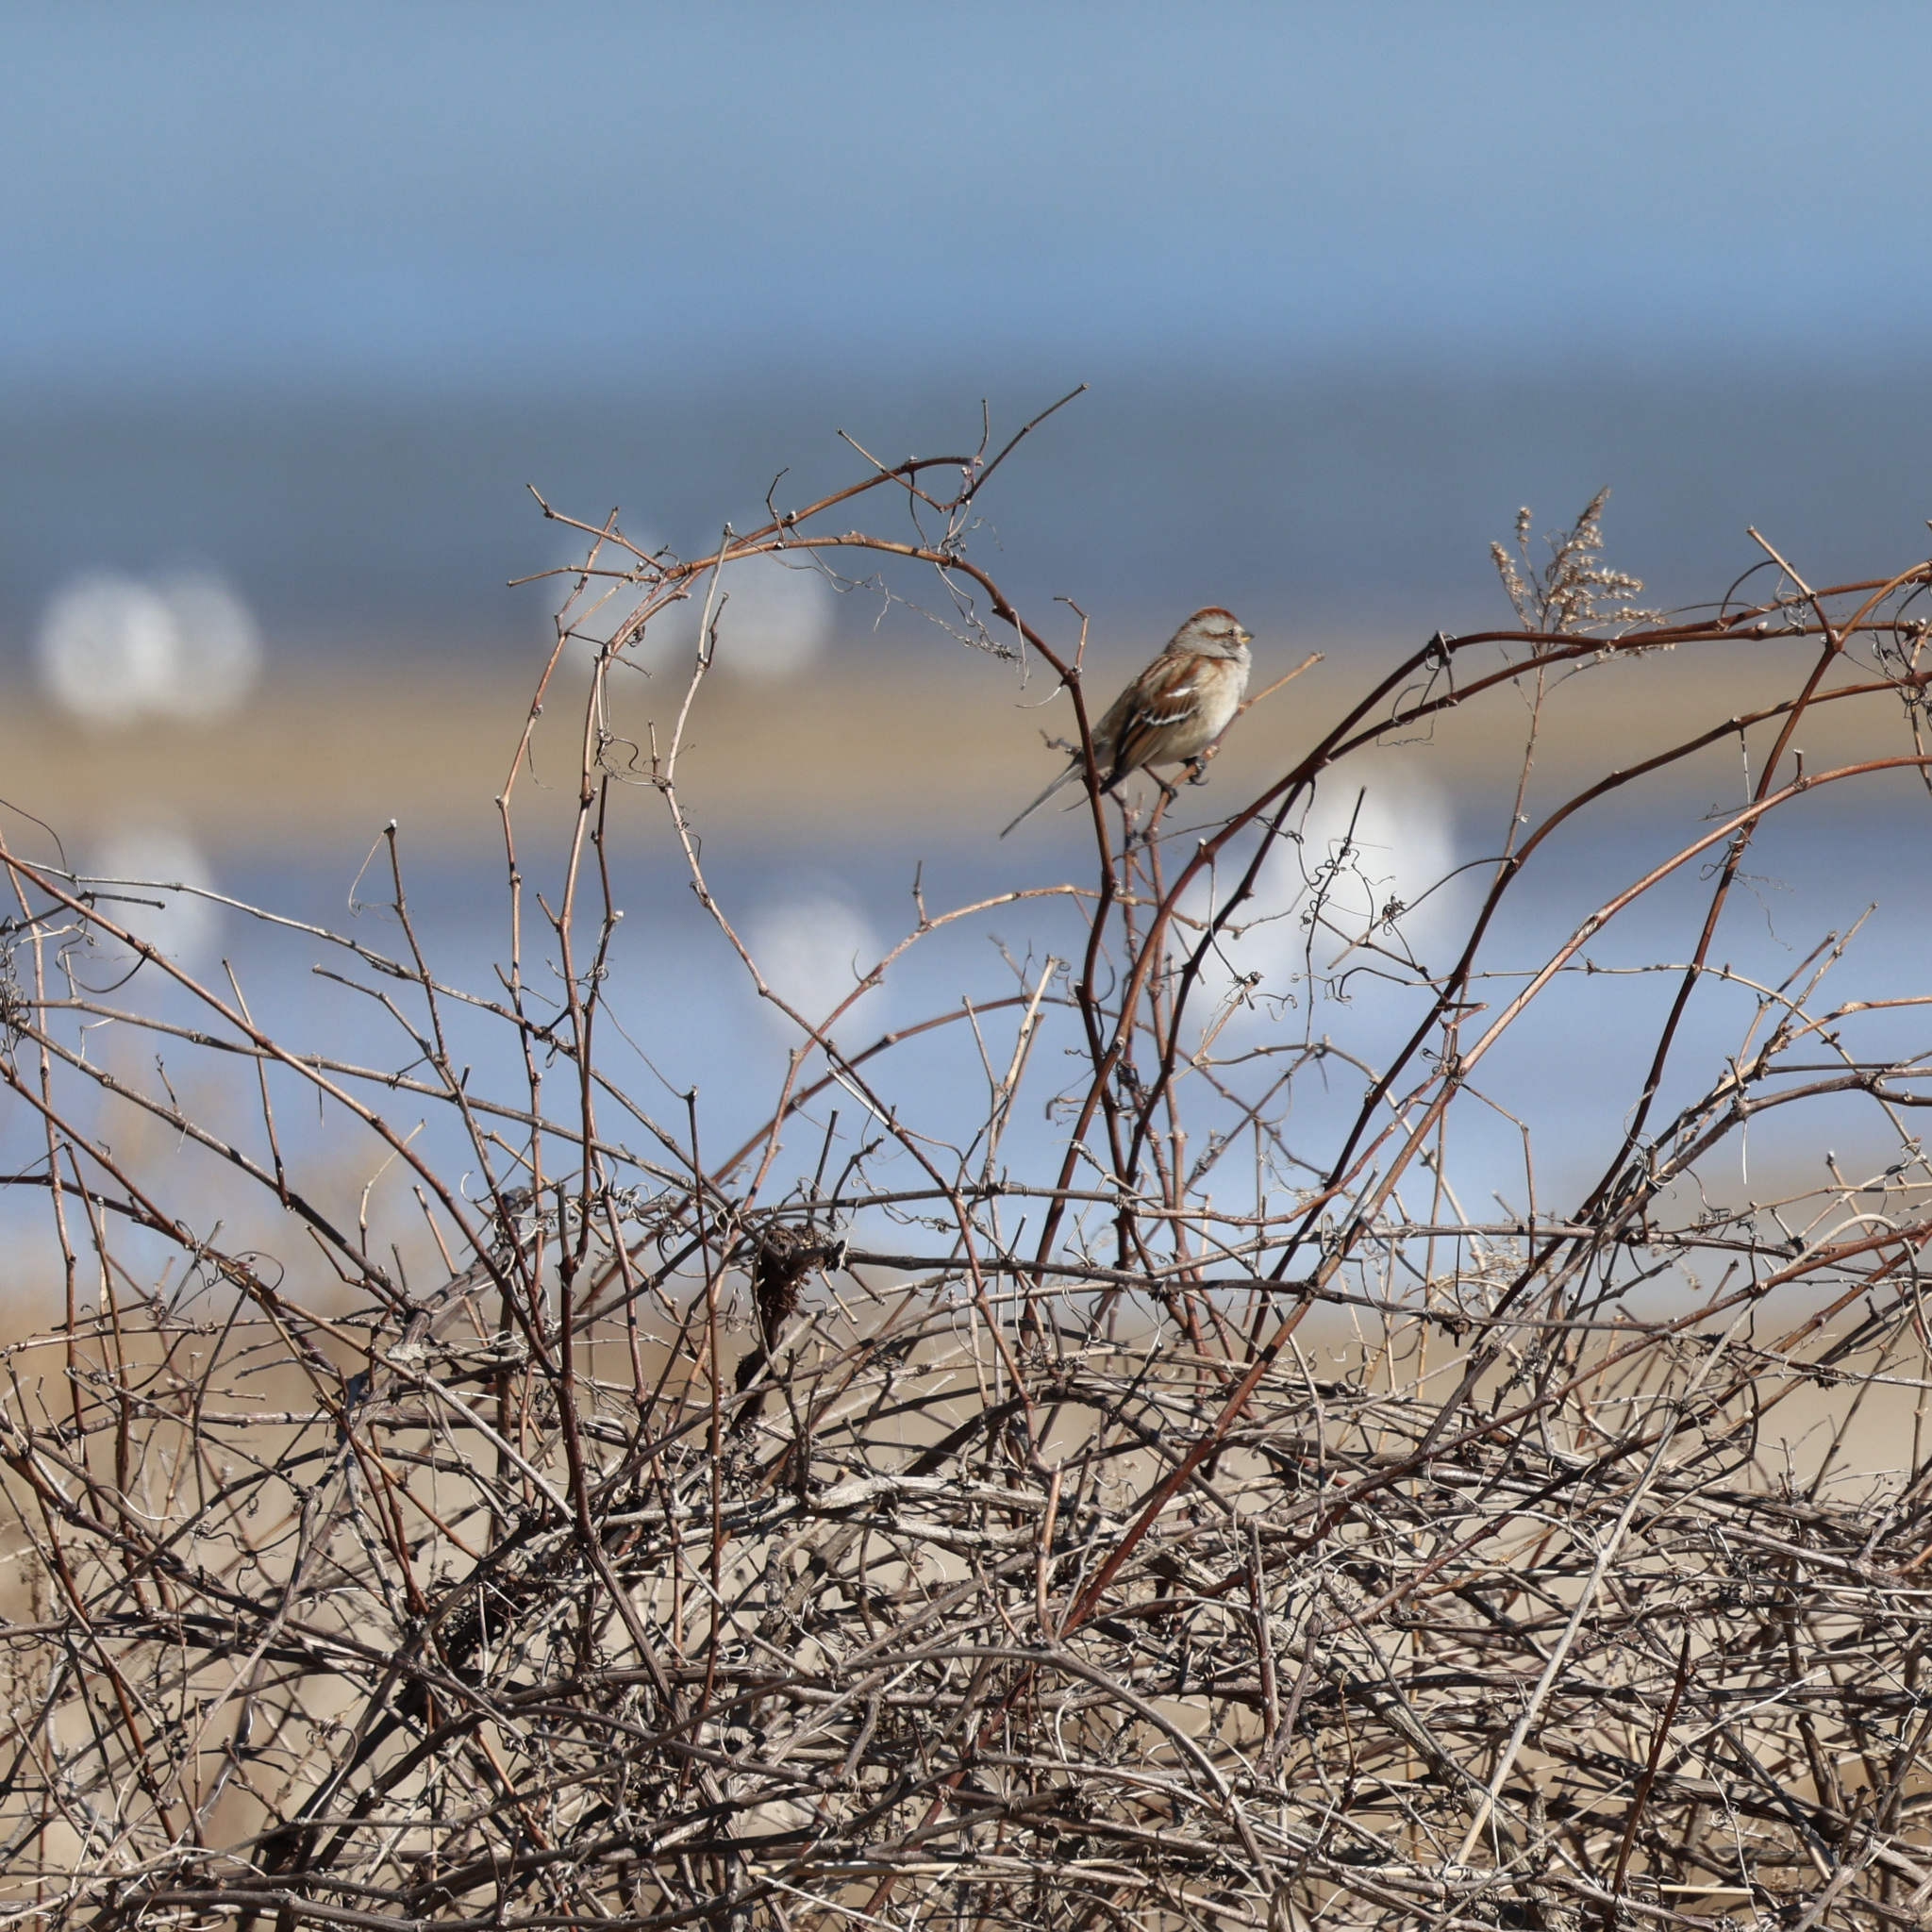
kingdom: Animalia
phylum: Chordata
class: Aves
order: Passeriformes
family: Passerellidae
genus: Spizelloides
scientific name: Spizelloides arborea
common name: American tree sparrow
